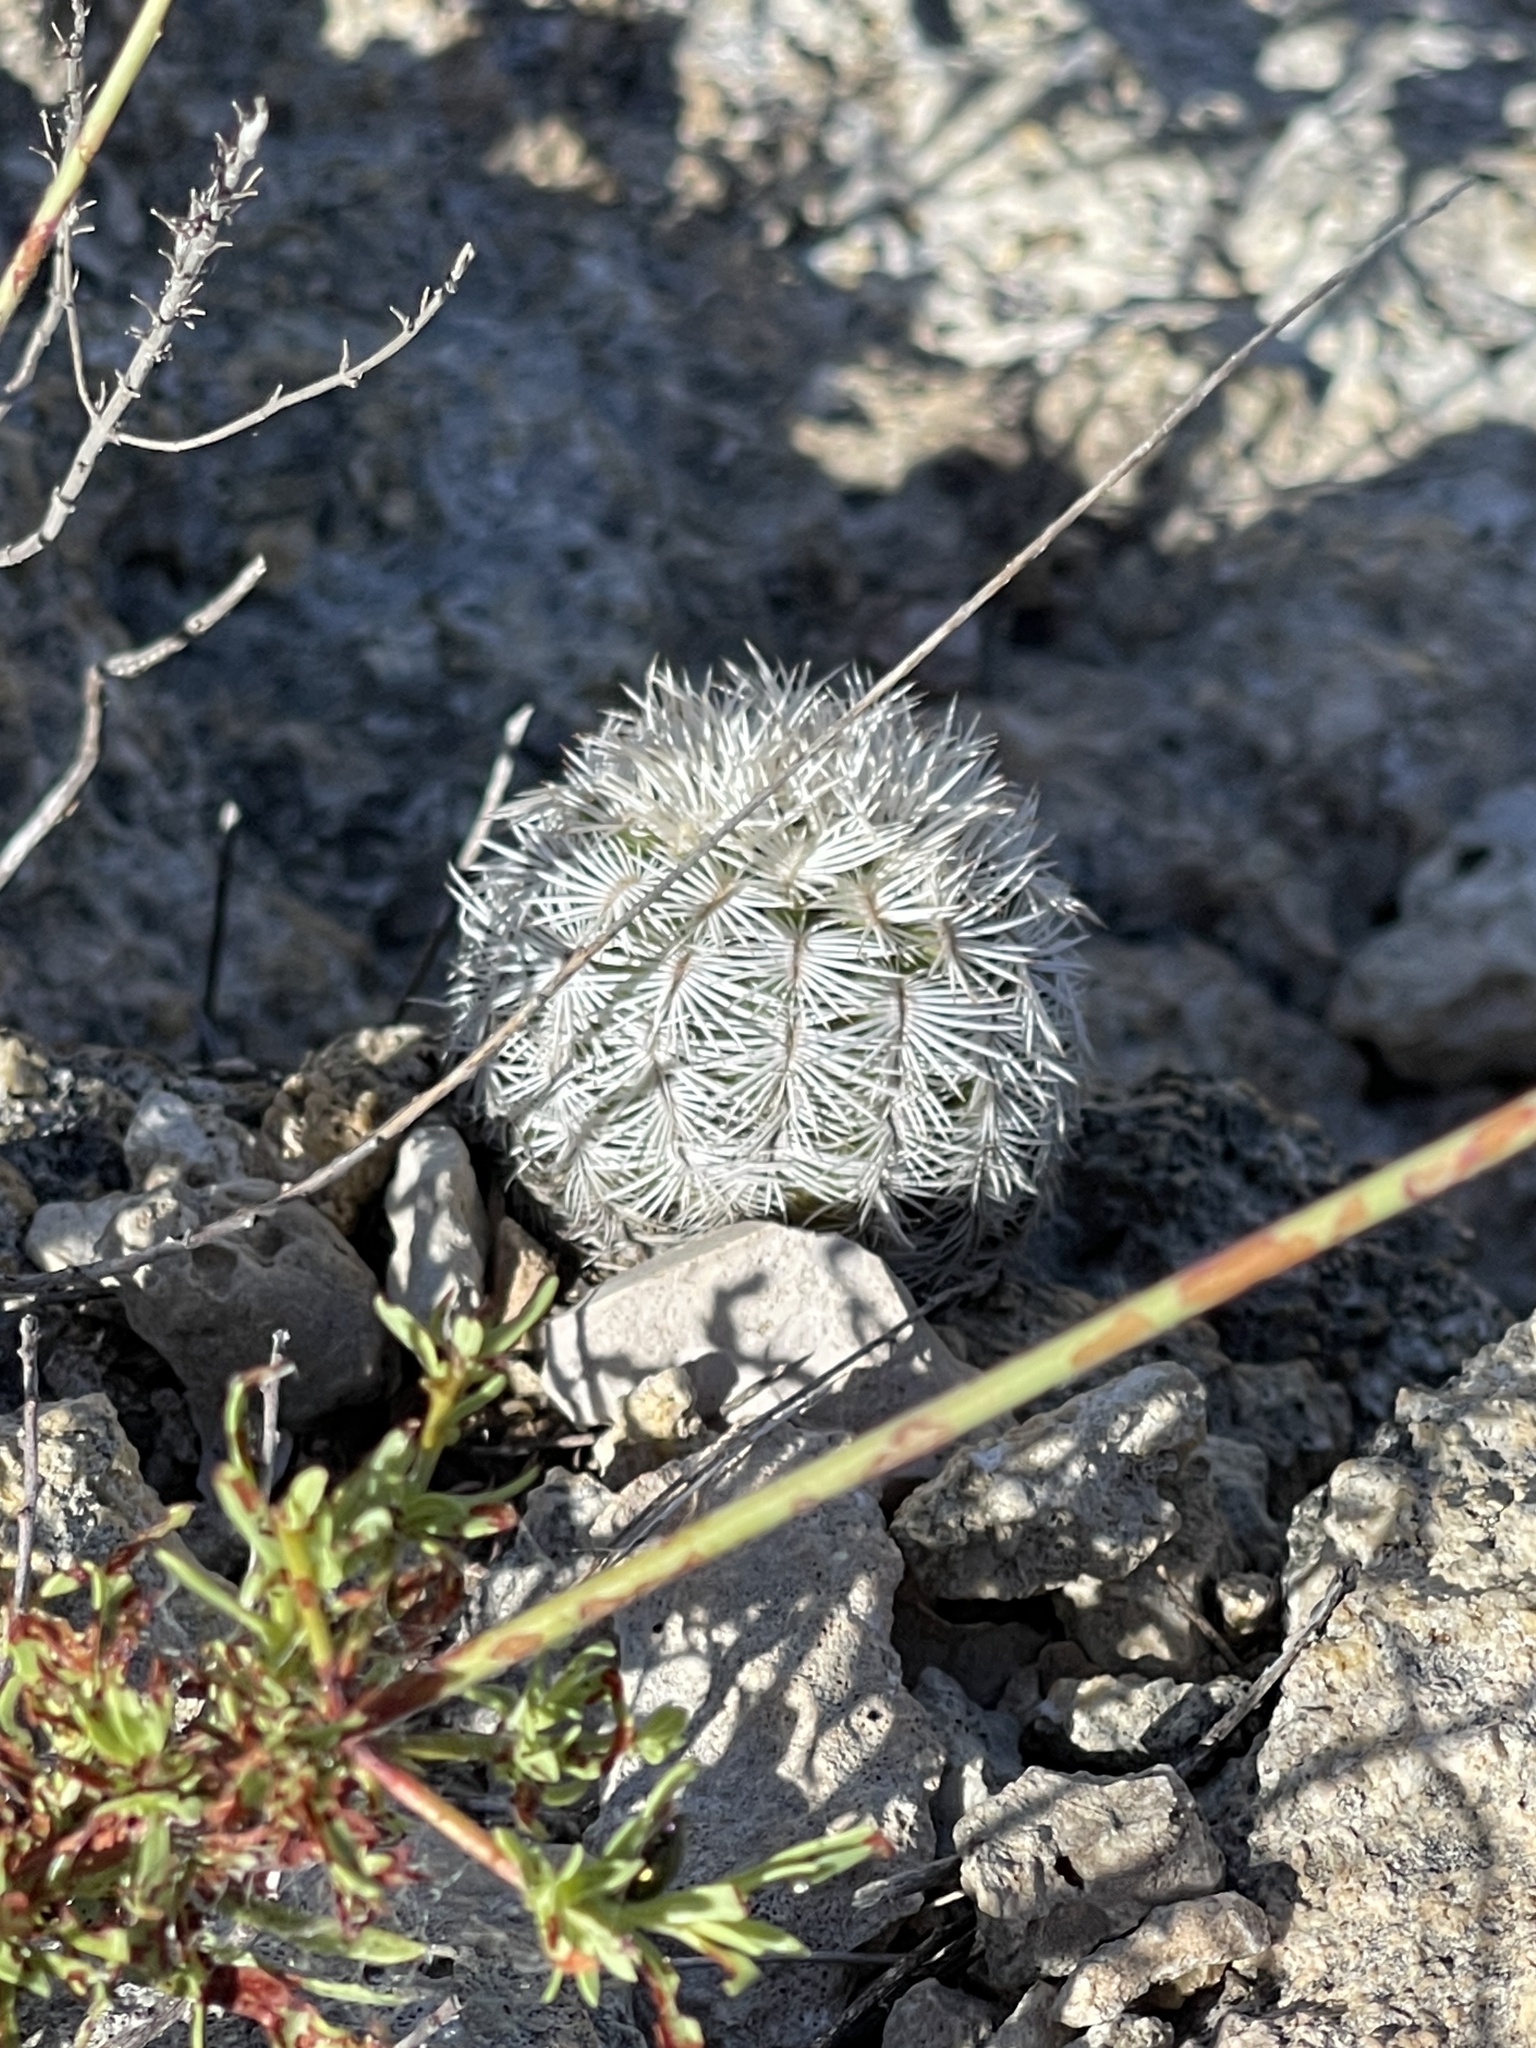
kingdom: Plantae
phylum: Tracheophyta
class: Magnoliopsida
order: Caryophyllales
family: Cactaceae
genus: Echinocereus
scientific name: Echinocereus reichenbachii
